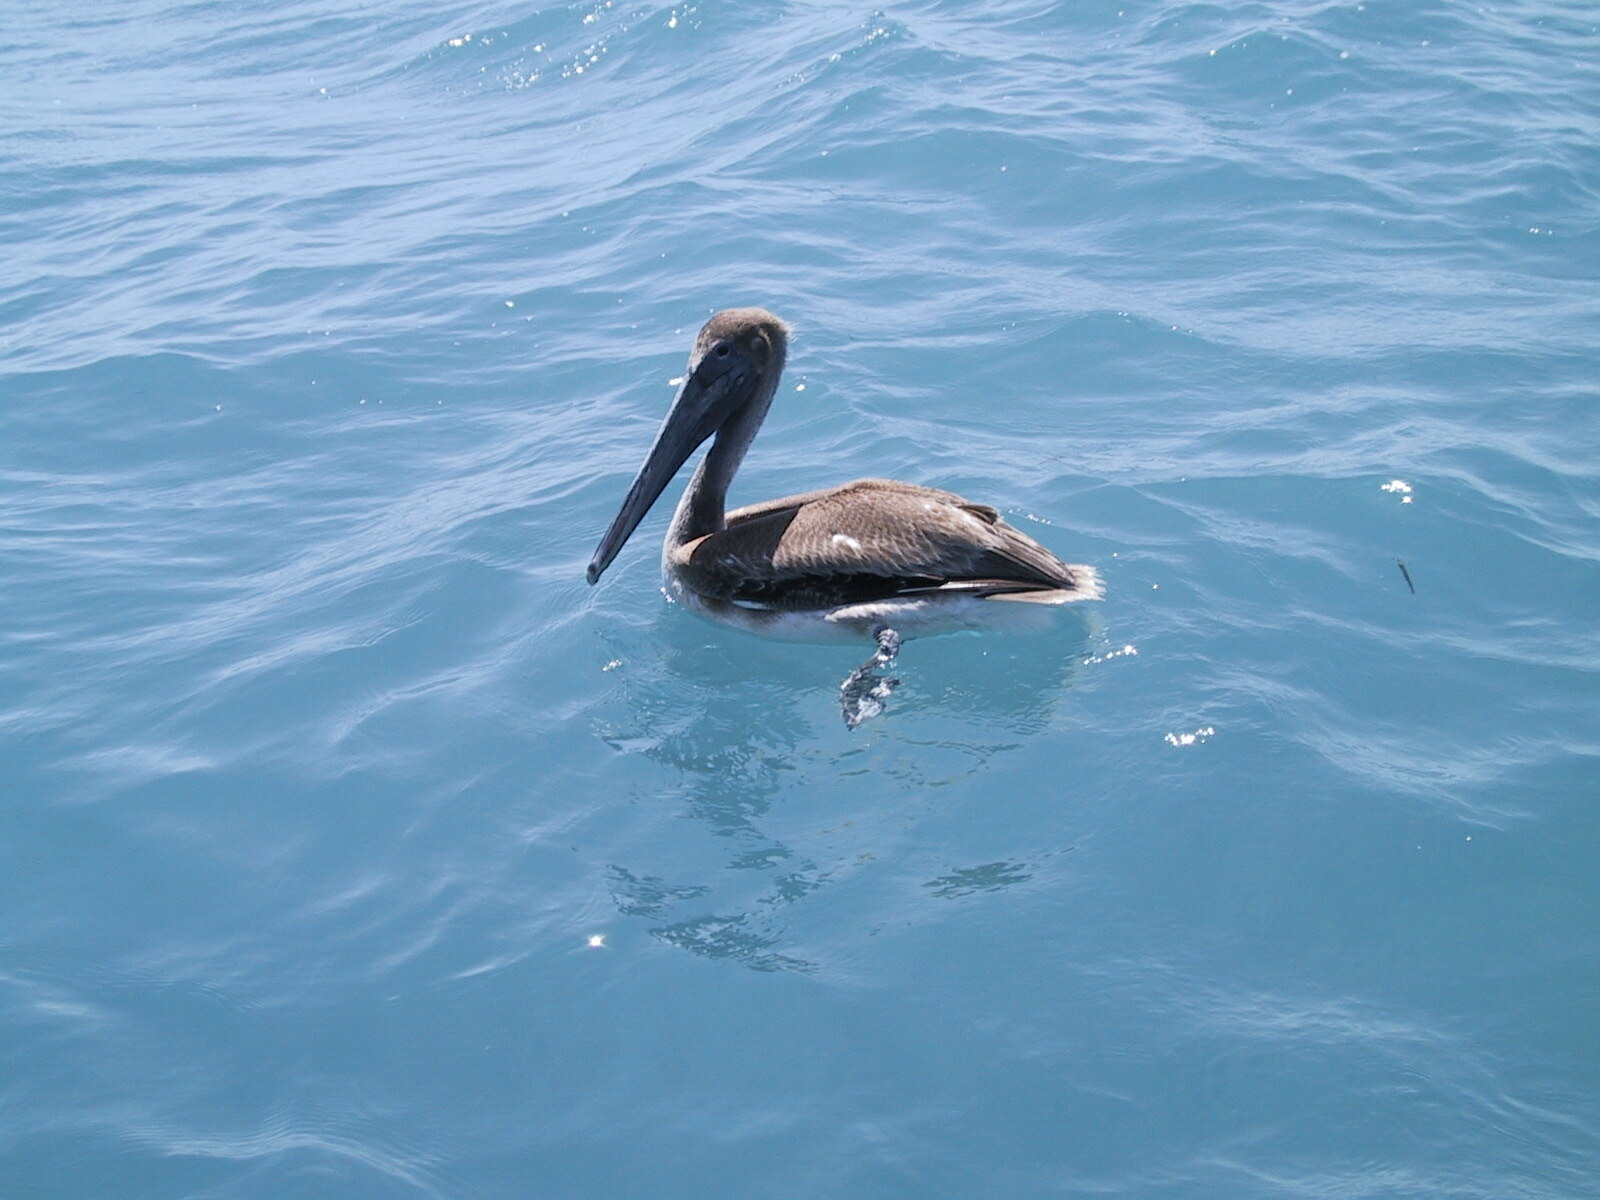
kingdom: Animalia
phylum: Chordata
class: Aves
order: Pelecaniformes
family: Pelecanidae
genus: Pelecanus
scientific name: Pelecanus occidentalis
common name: Brown pelican
